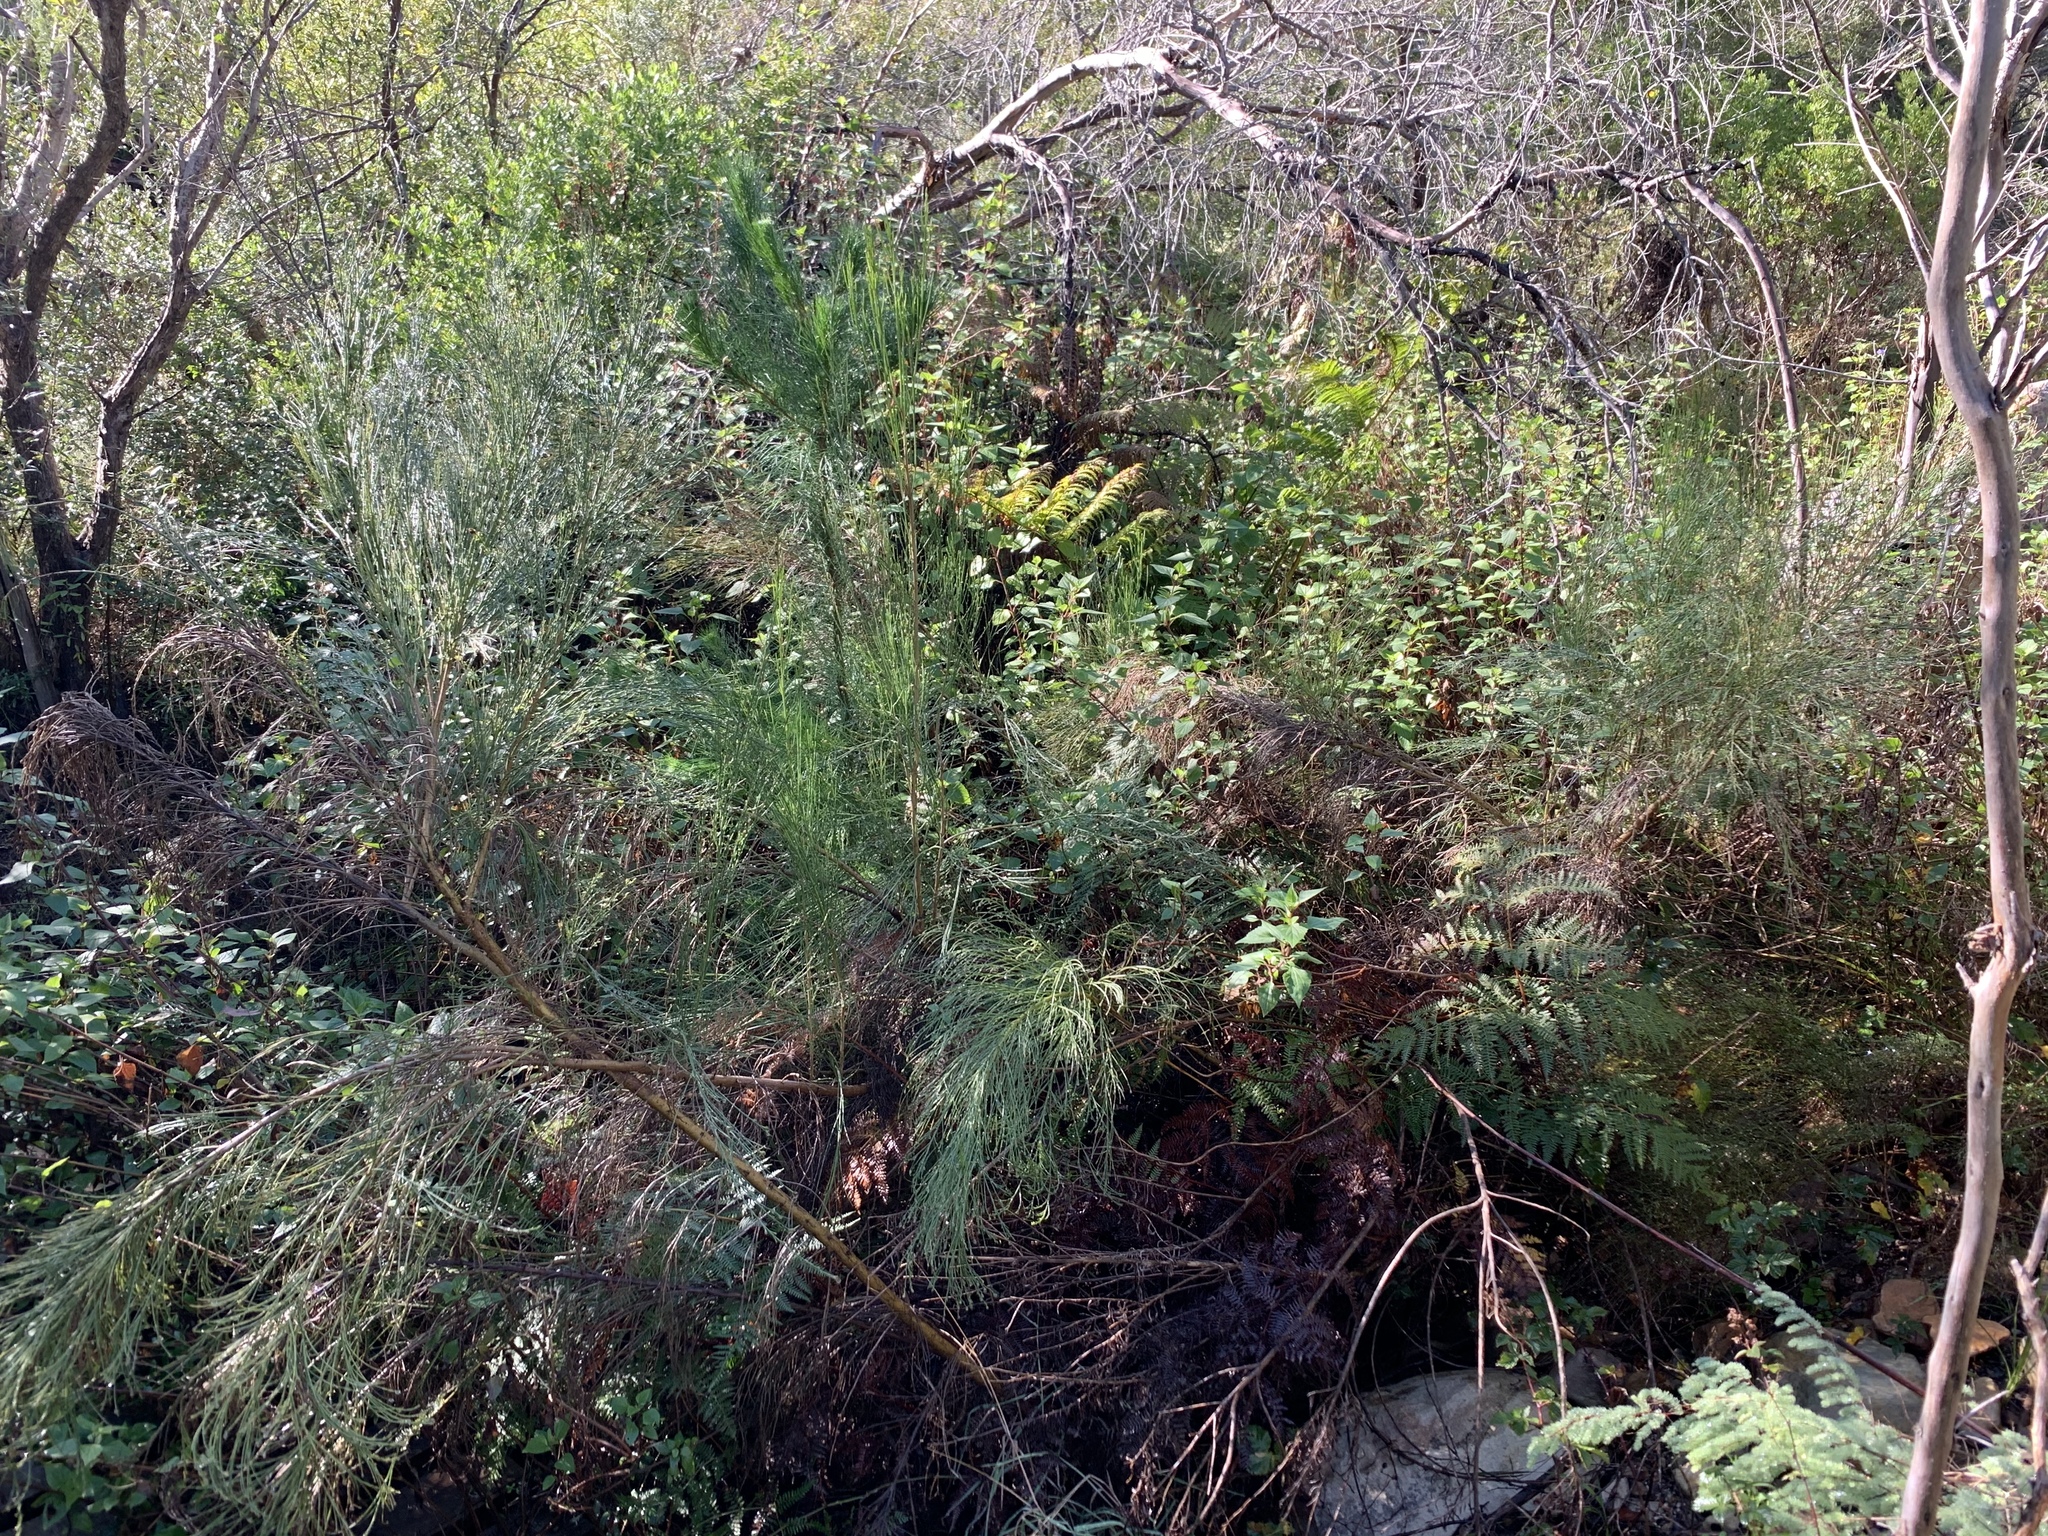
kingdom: Plantae
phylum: Tracheophyta
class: Magnoliopsida
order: Asterales
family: Asteraceae
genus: Ageratina
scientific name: Ageratina adenophora
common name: Sticky snakeroot
